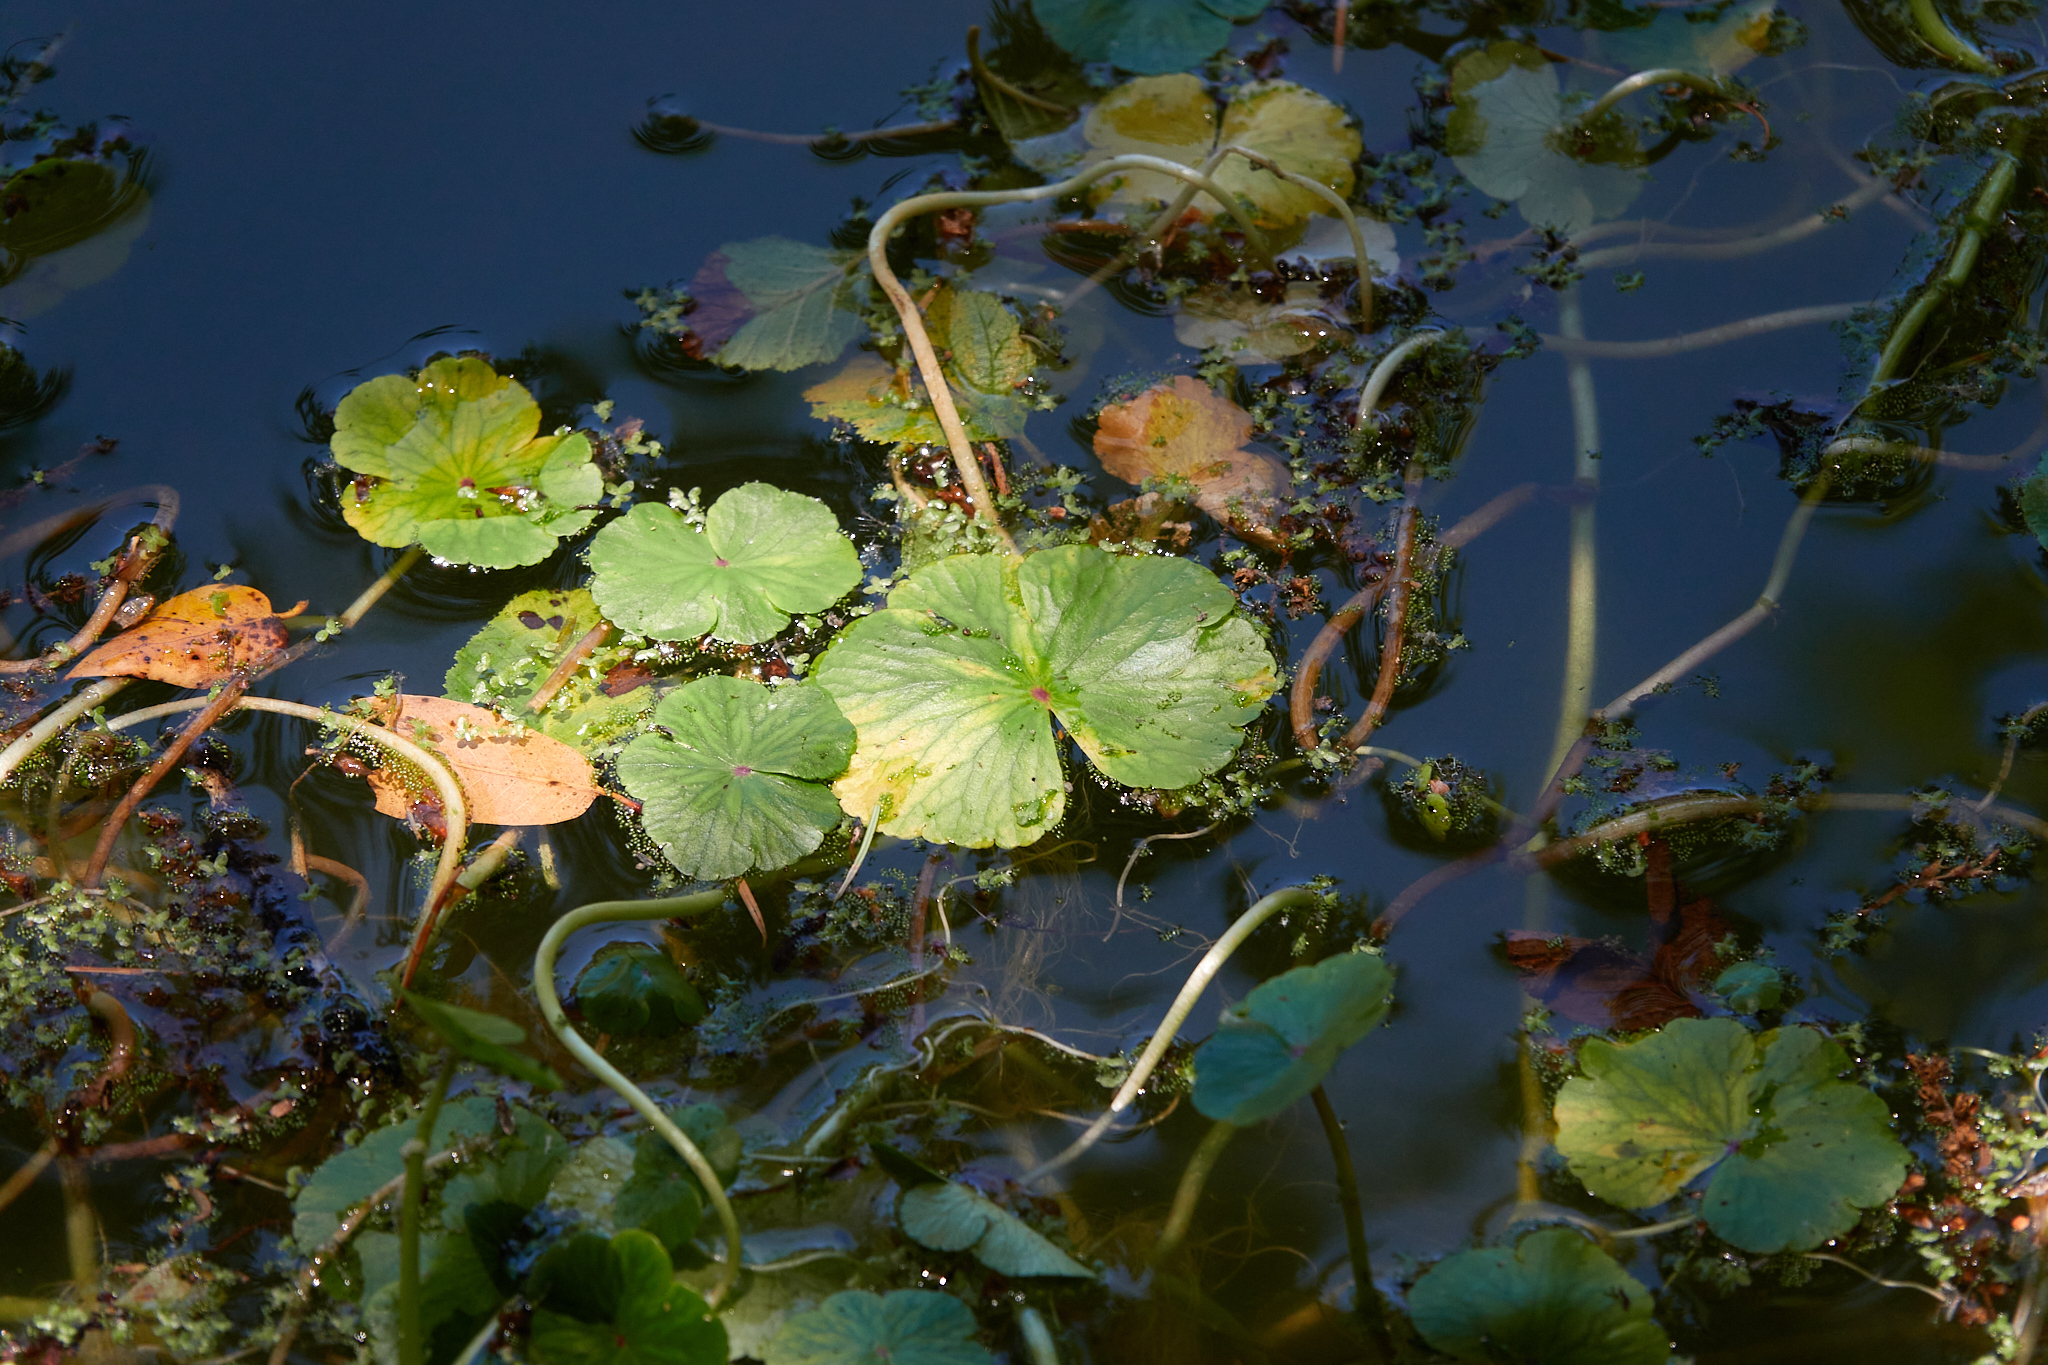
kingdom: Plantae
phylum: Tracheophyta
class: Magnoliopsida
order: Apiales
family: Araliaceae
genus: Hydrocotyle
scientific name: Hydrocotyle ranunculoides
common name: Floating pennywort
